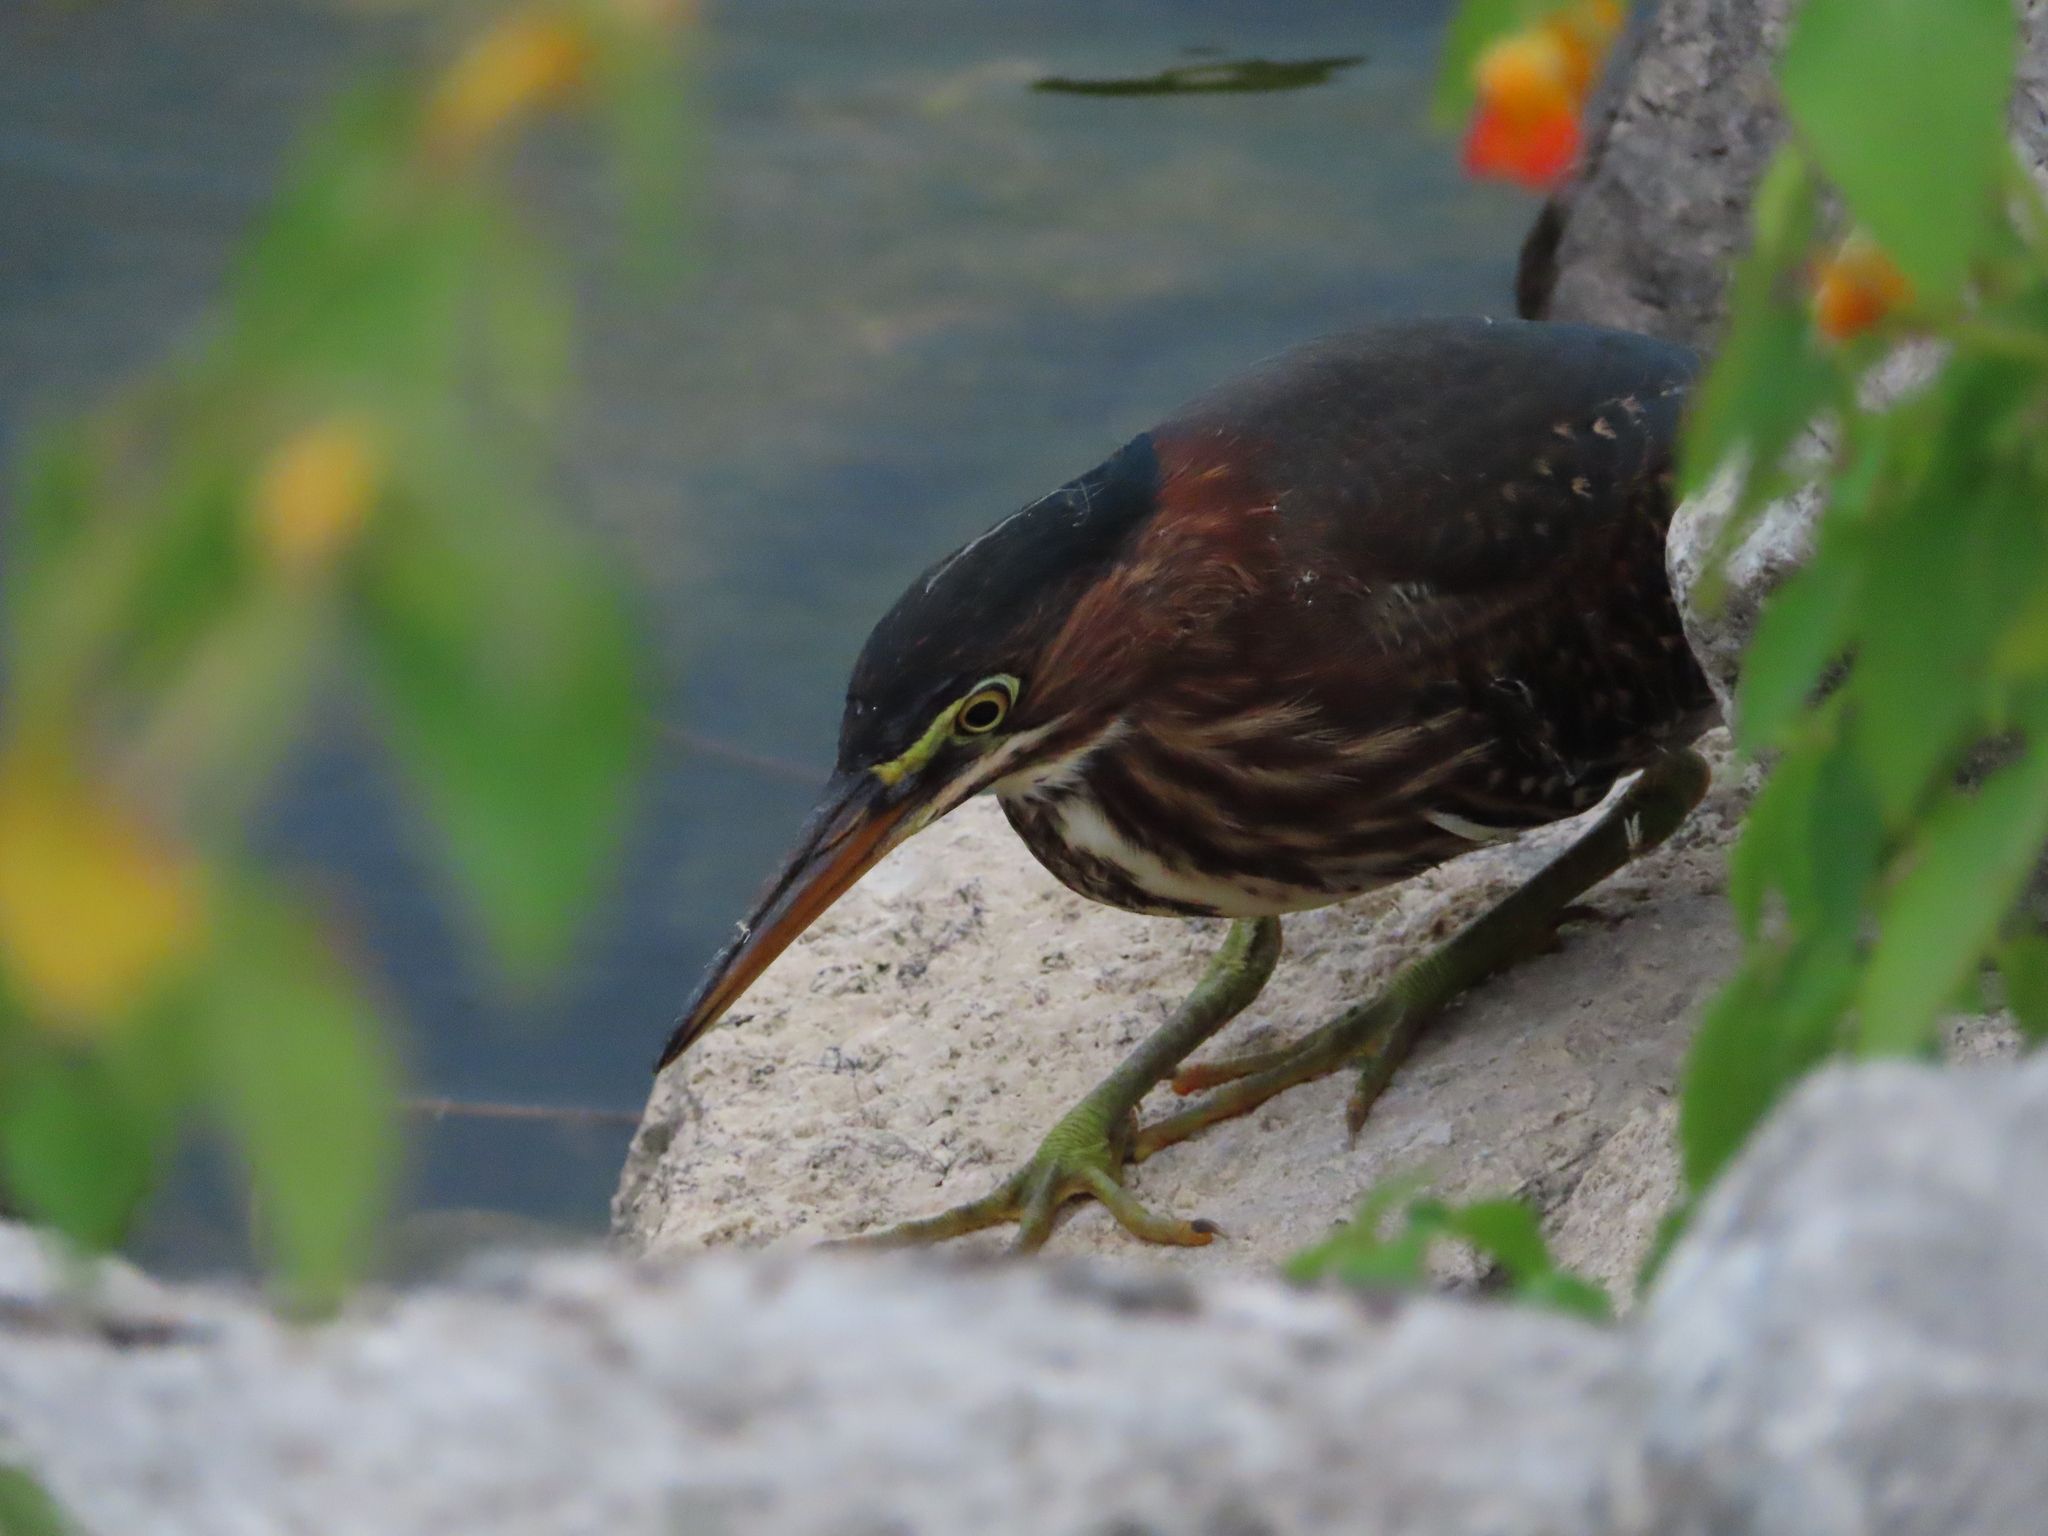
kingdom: Animalia
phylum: Chordata
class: Aves
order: Pelecaniformes
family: Ardeidae
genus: Butorides
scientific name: Butorides virescens
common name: Green heron
